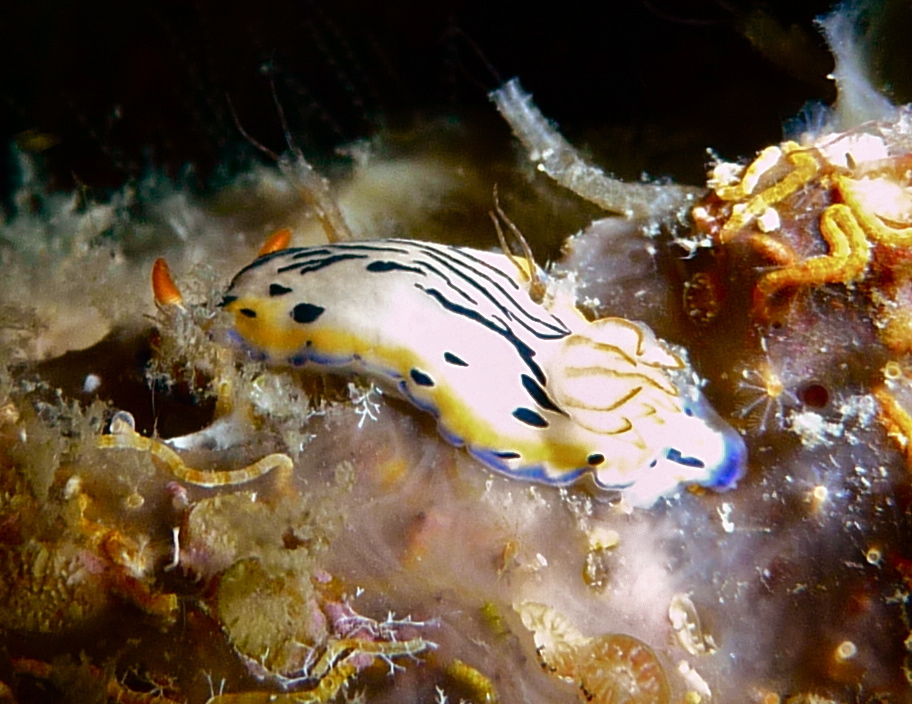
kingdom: Animalia
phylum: Mollusca
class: Gastropoda
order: Nudibranchia
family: Chromodorididae
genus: Hypselodoris
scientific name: Hypselodoris maritima
